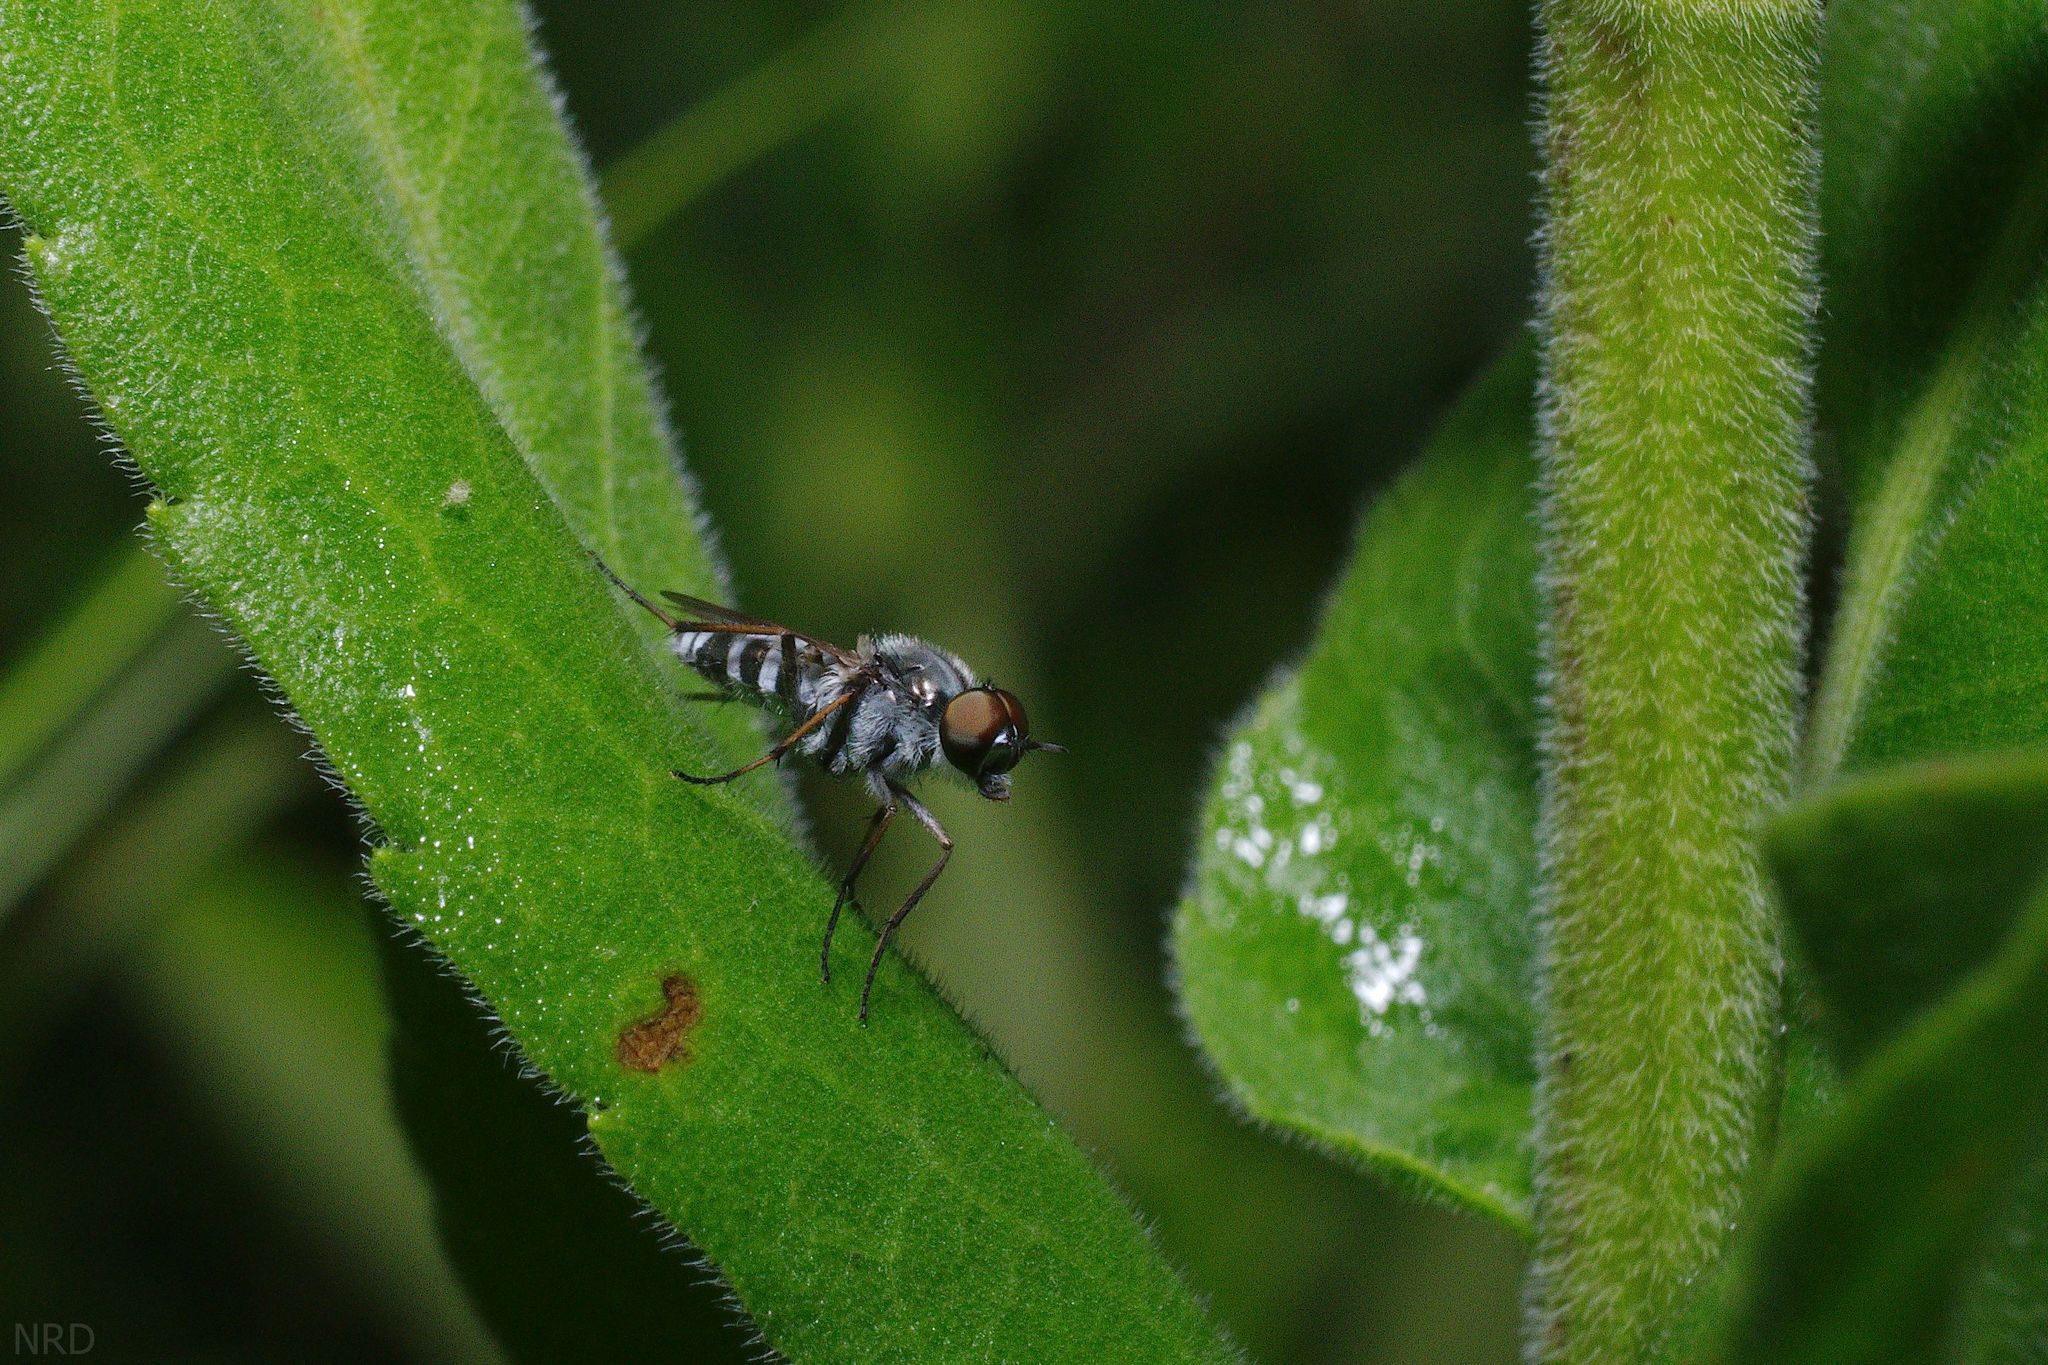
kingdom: Animalia
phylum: Arthropoda
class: Insecta
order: Diptera
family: Therevidae
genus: Ozodiceromyia
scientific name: Ozodiceromyia argentata
